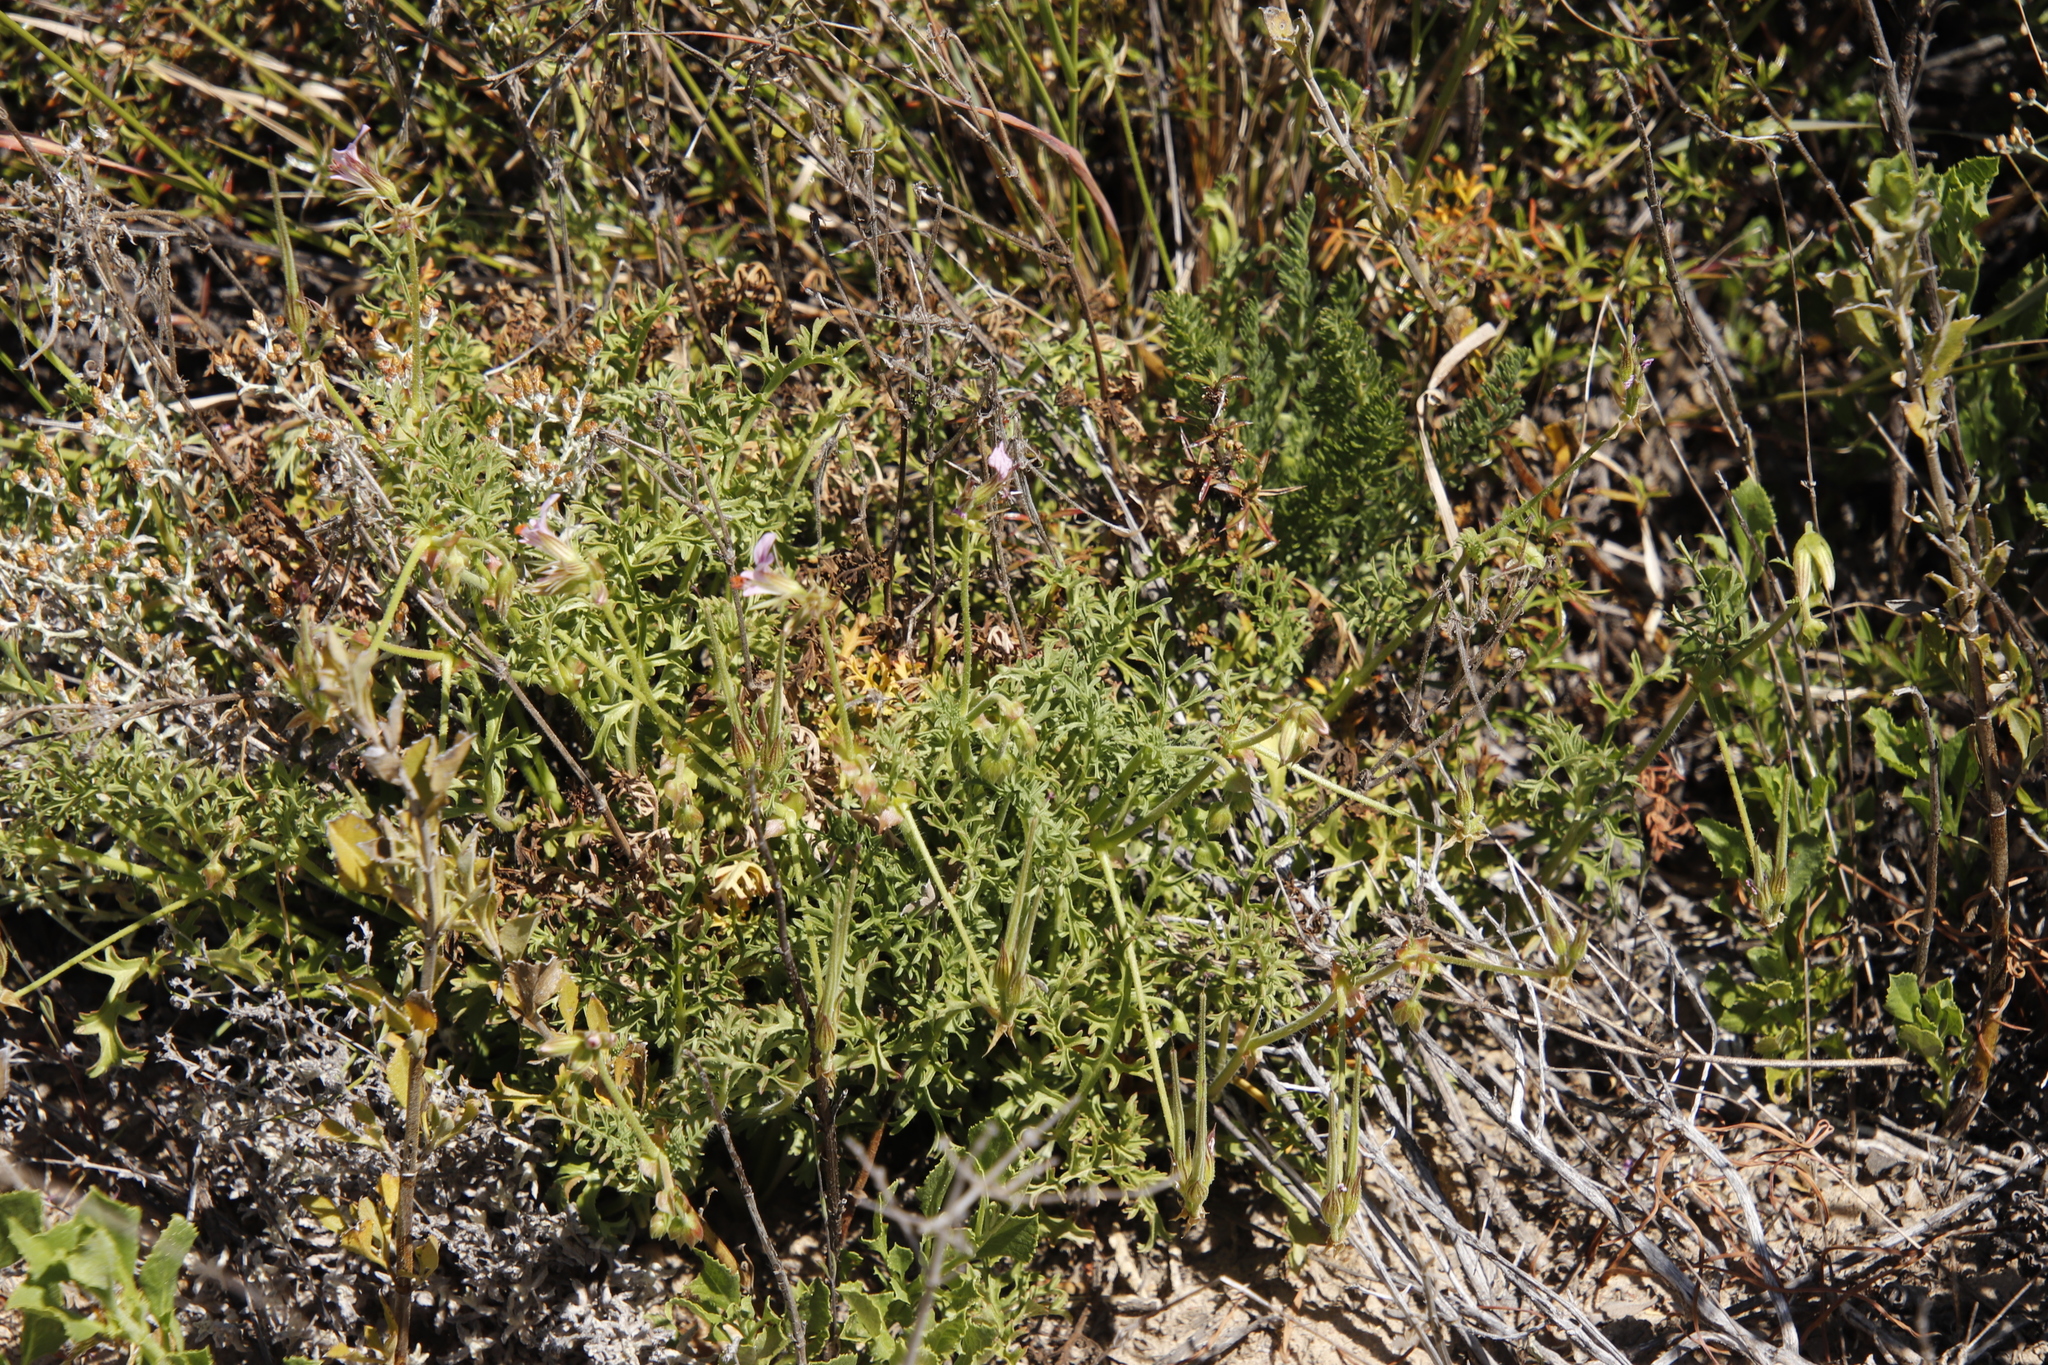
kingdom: Plantae
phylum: Tracheophyta
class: Magnoliopsida
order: Geraniales
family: Geraniaceae
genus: Pelargonium
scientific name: Pelargonium myrrhifolium
